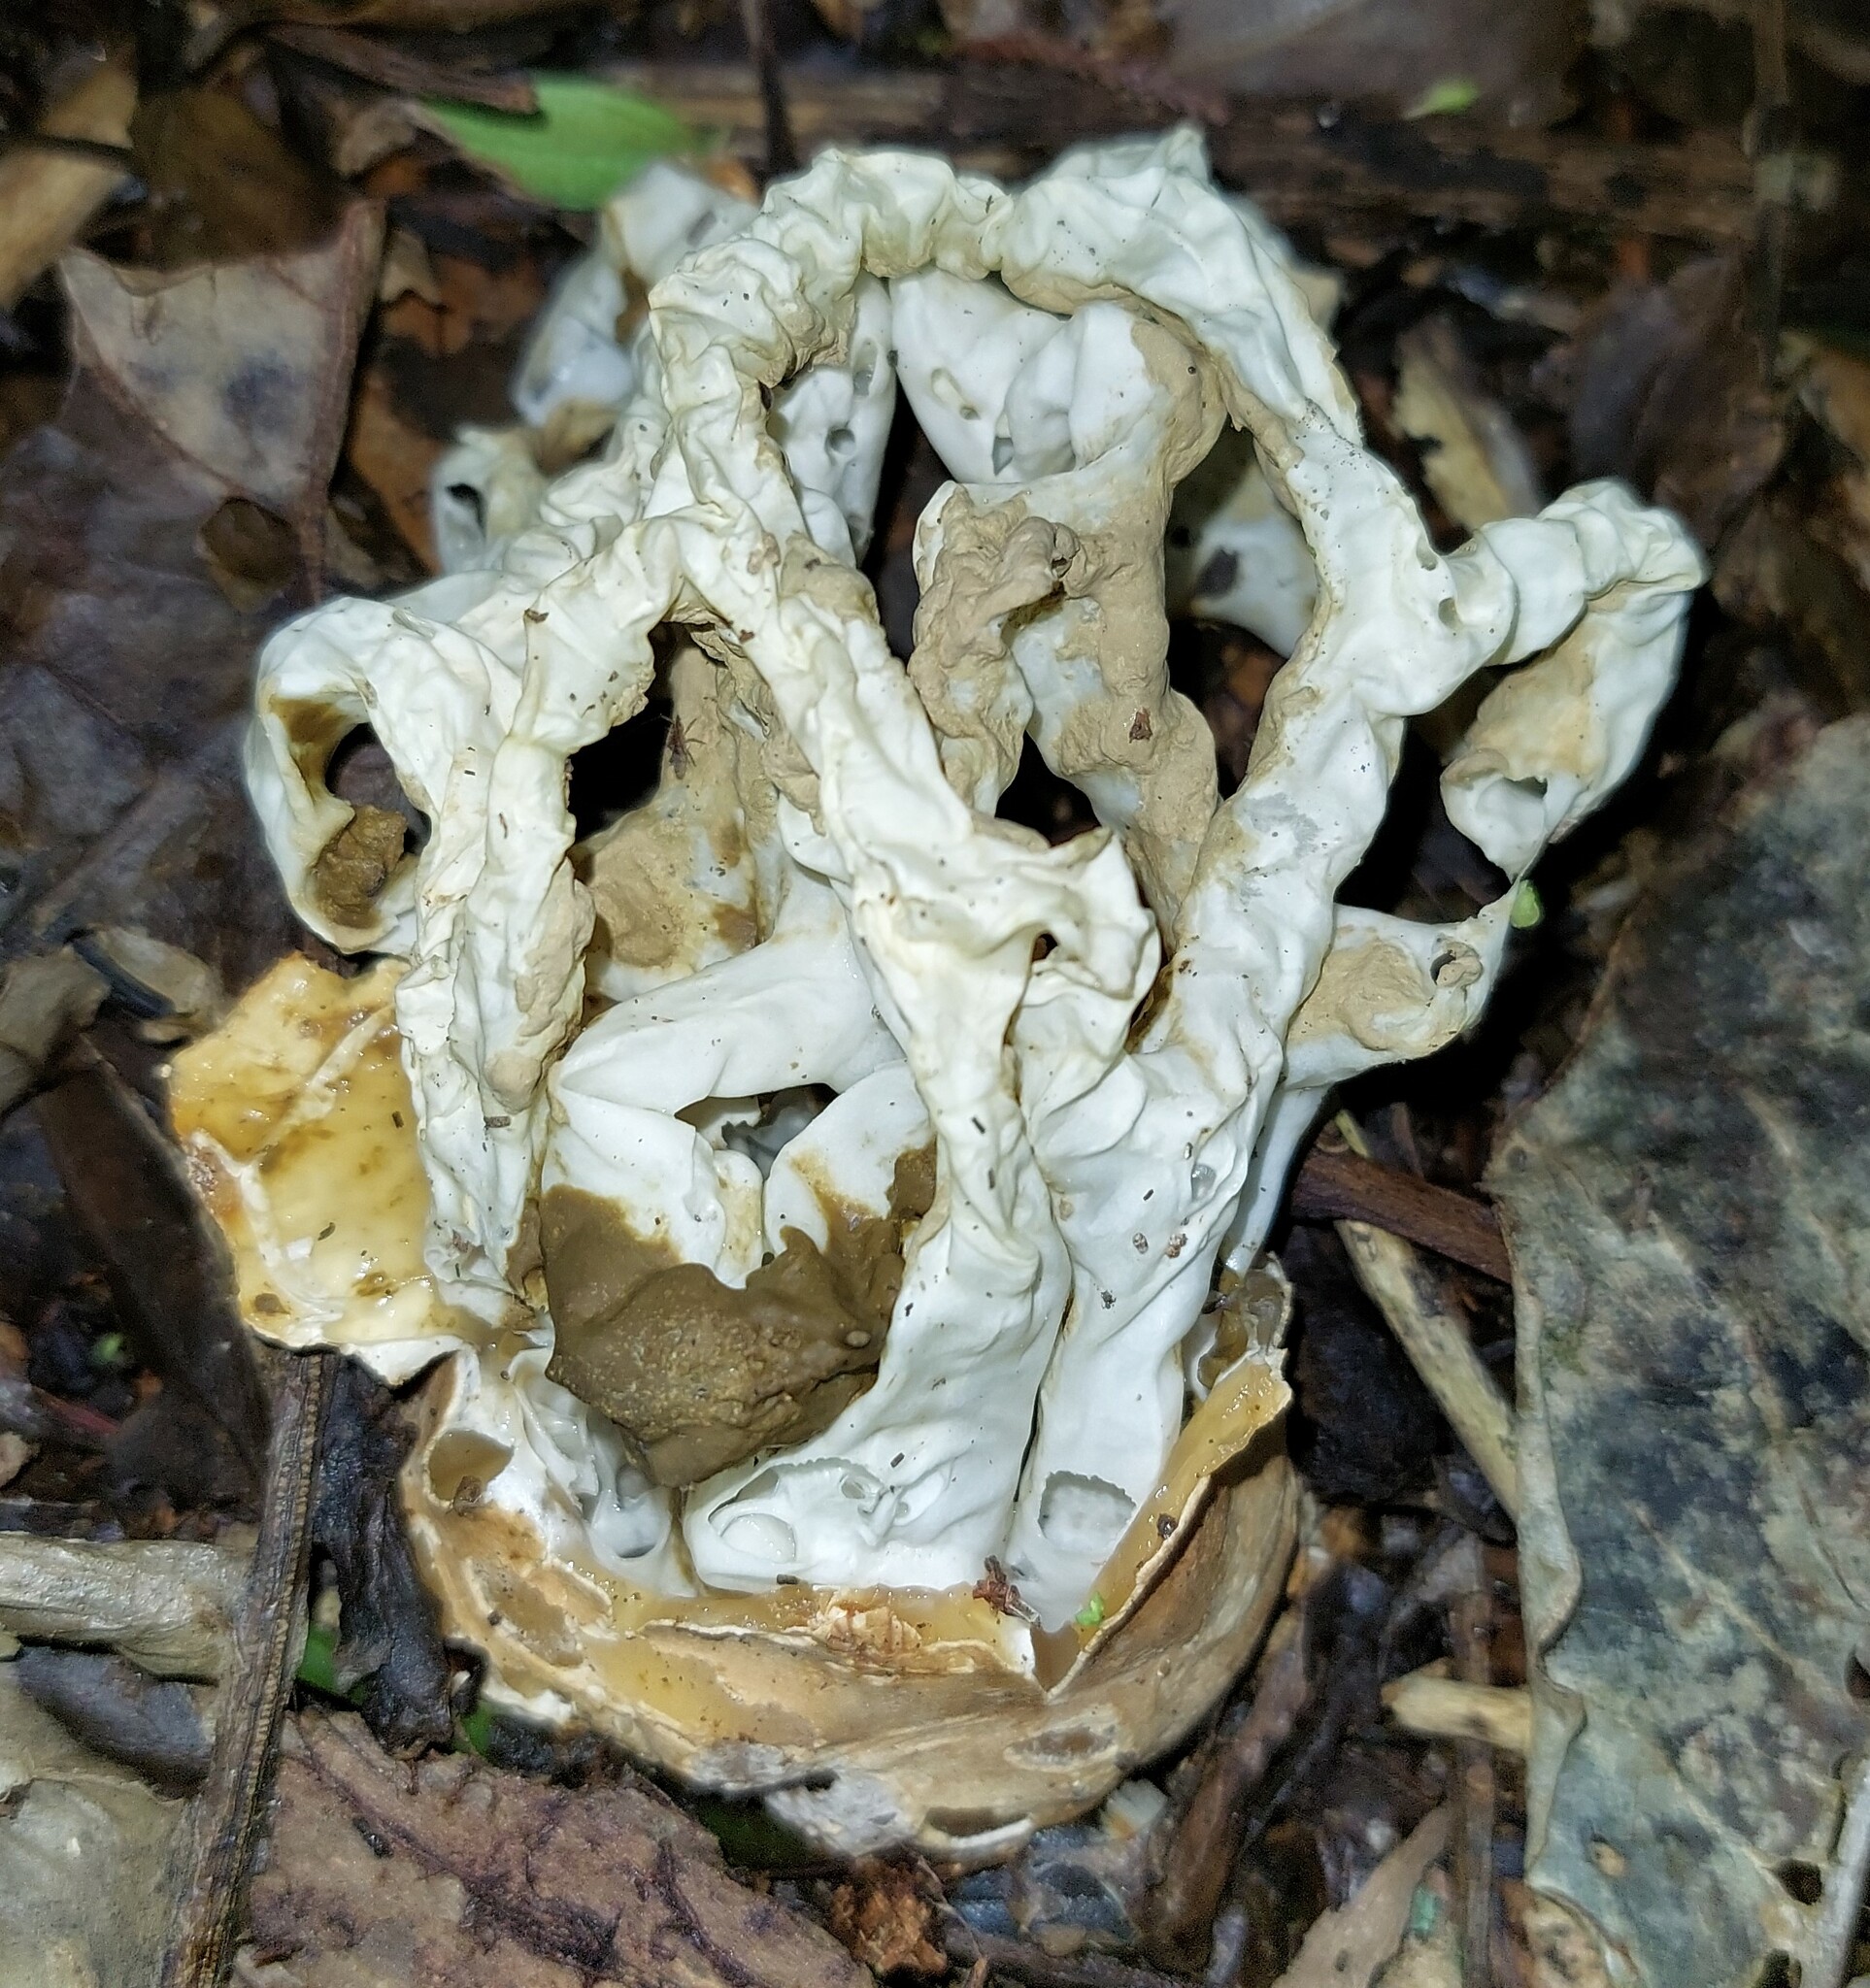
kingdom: Fungi
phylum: Basidiomycota
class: Agaricomycetes
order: Phallales
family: Phallaceae
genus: Ileodictyon
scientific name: Ileodictyon cibarium
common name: Basket fungus
